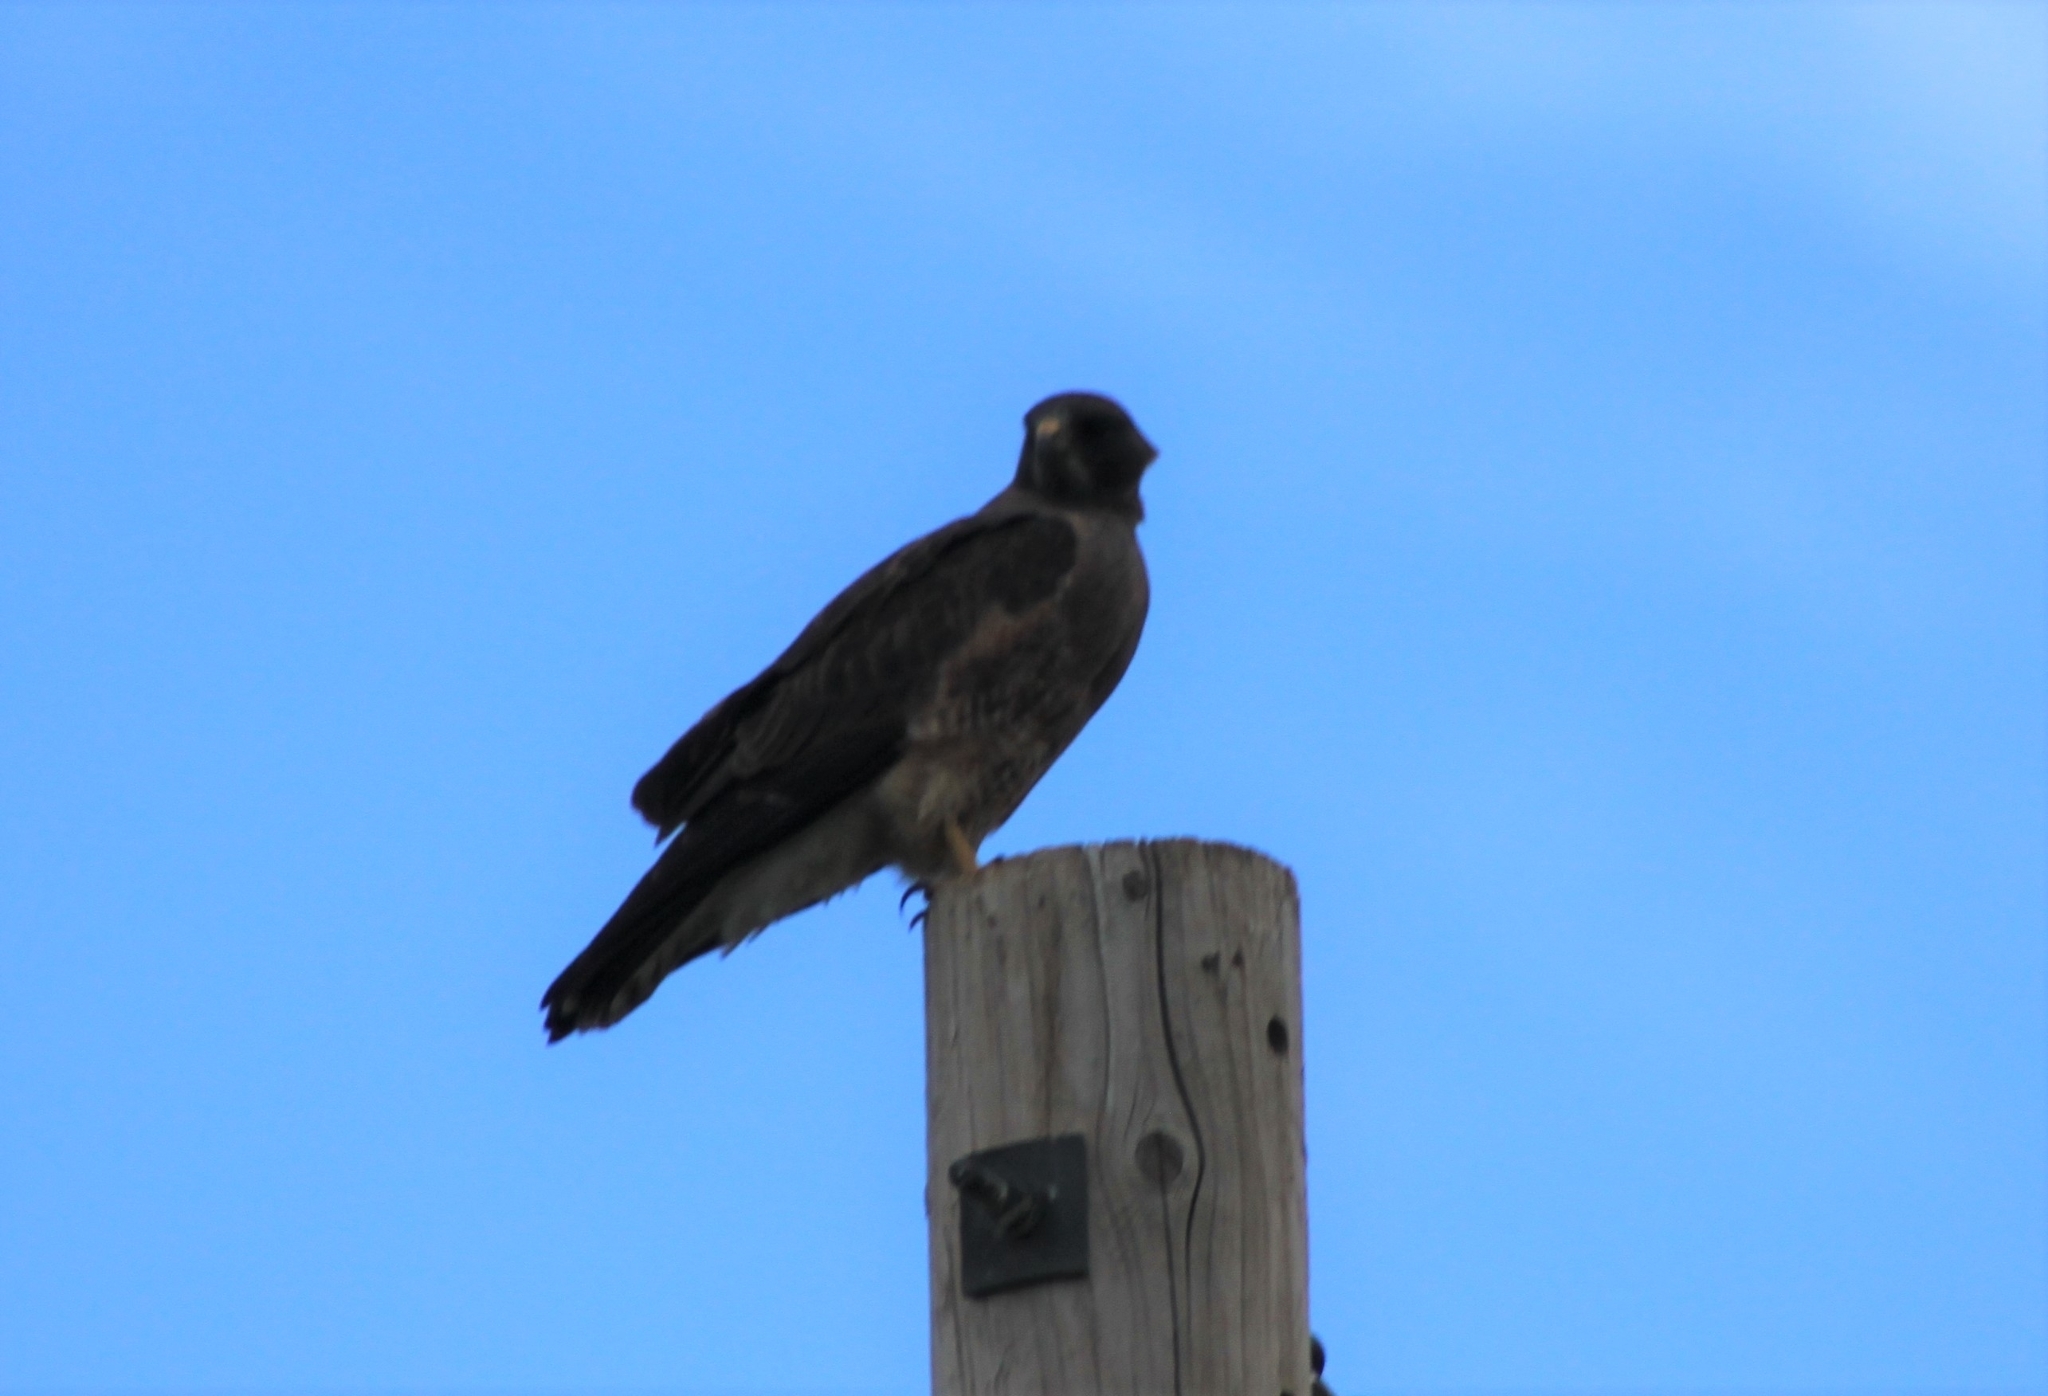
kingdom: Animalia
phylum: Chordata
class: Aves
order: Accipitriformes
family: Accipitridae
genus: Buteo
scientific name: Buteo swainsoni
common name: Swainson's hawk
